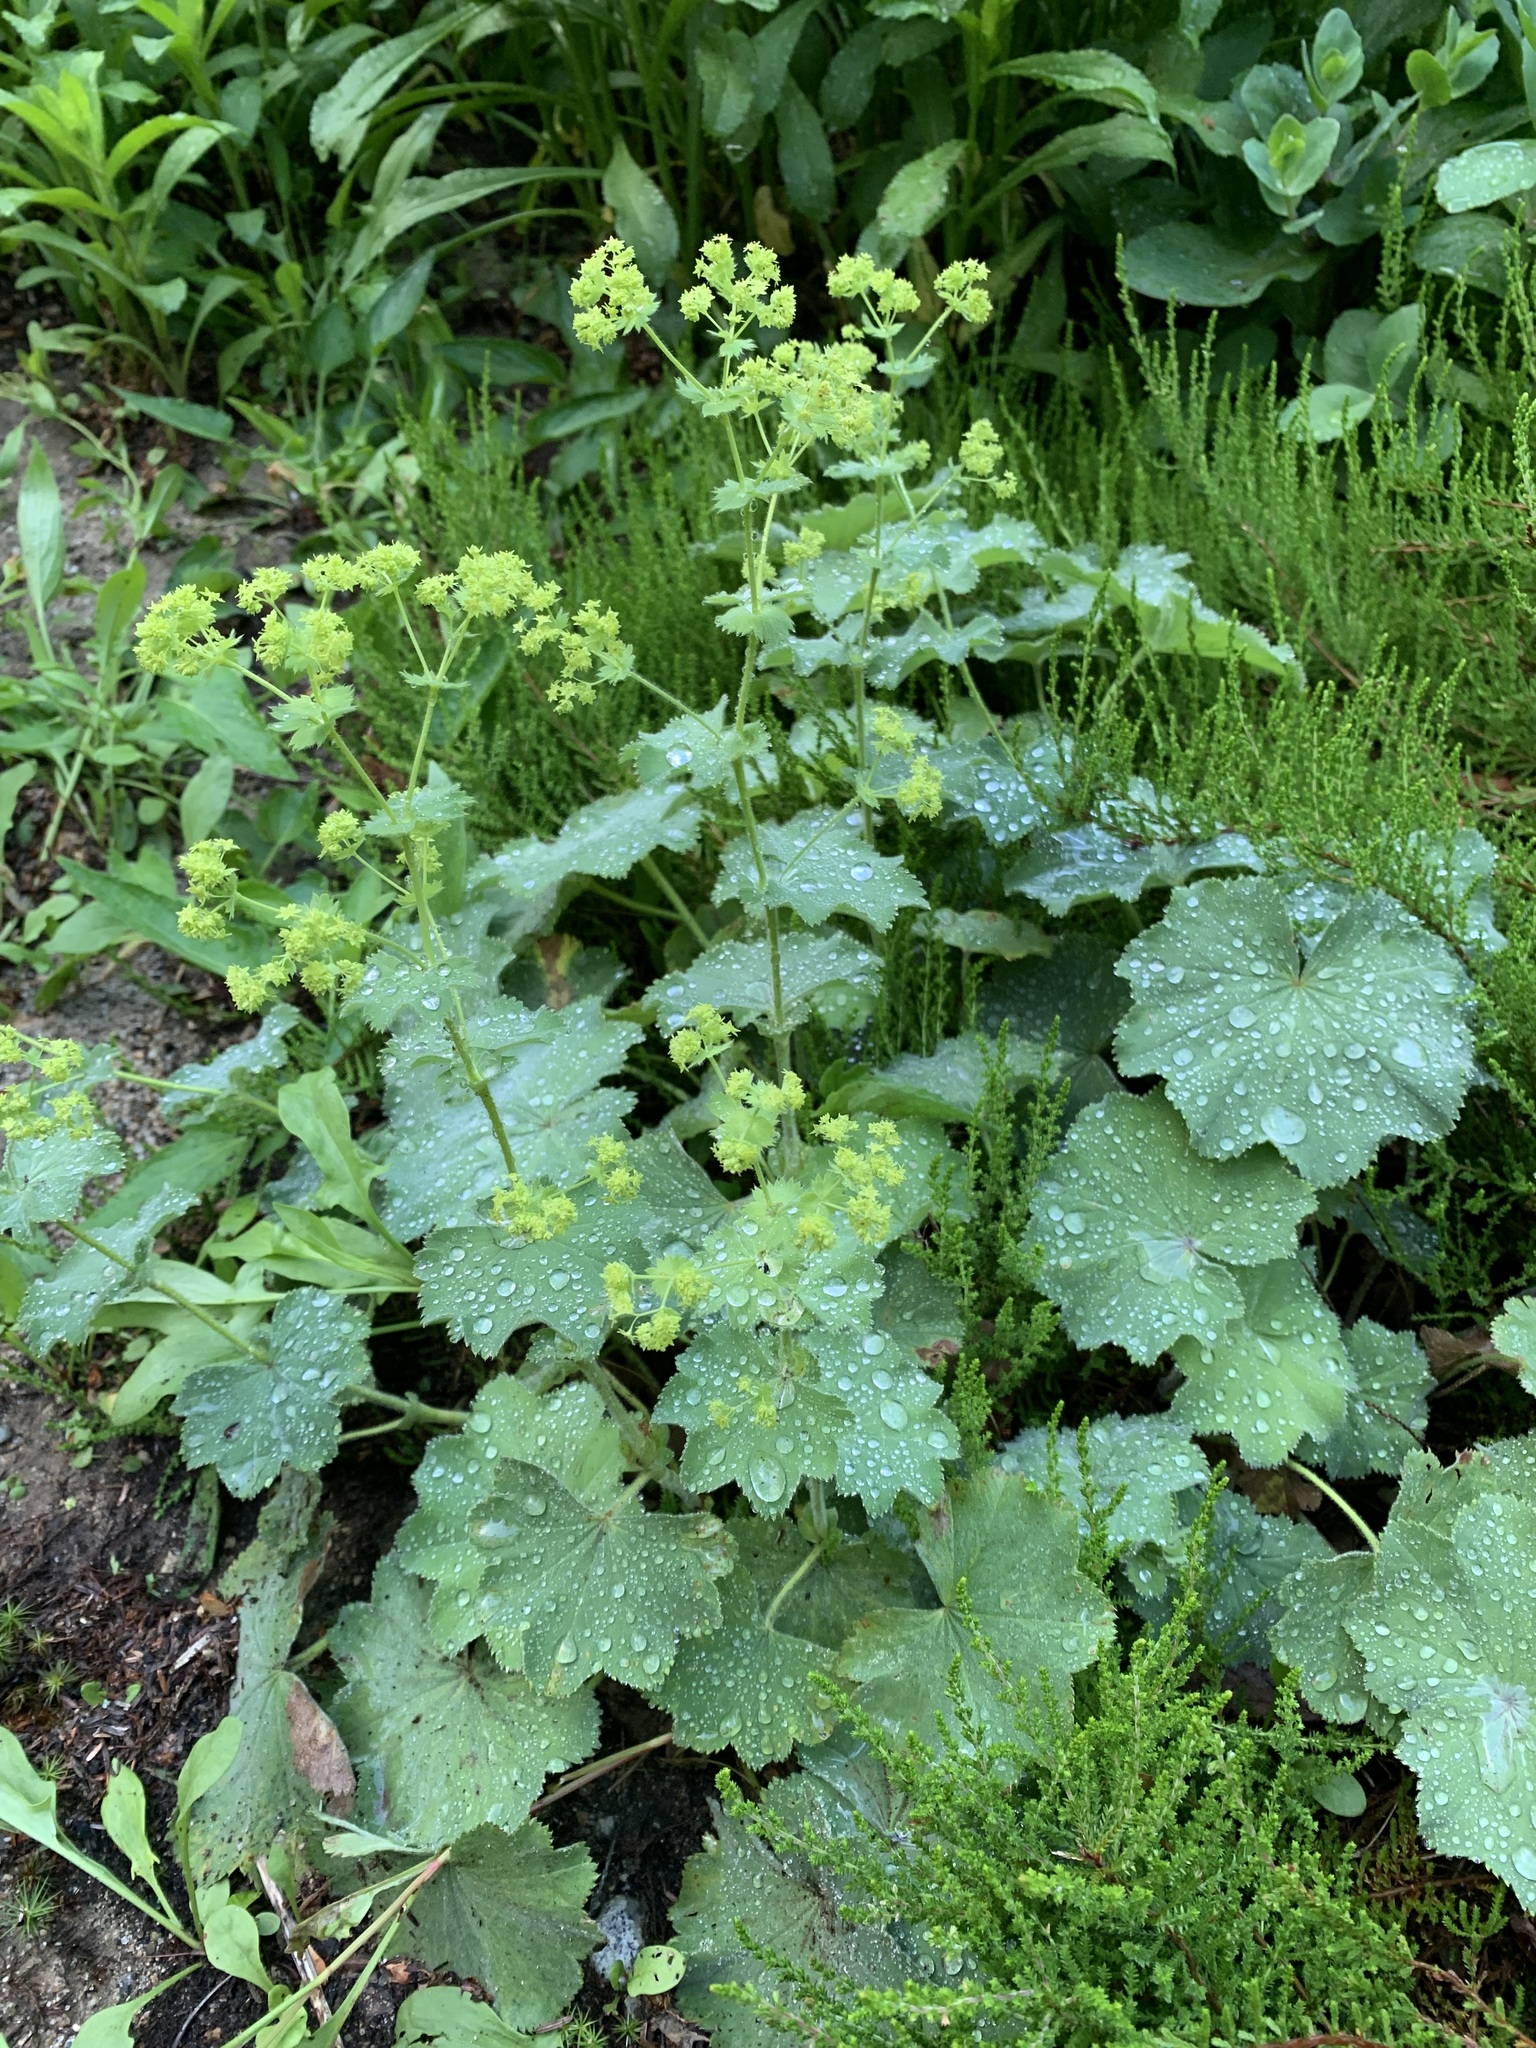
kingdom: Plantae
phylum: Tracheophyta
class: Magnoliopsida
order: Rosales
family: Rosaceae
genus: Alchemilla
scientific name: Alchemilla mollis
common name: Lady's-mantle
